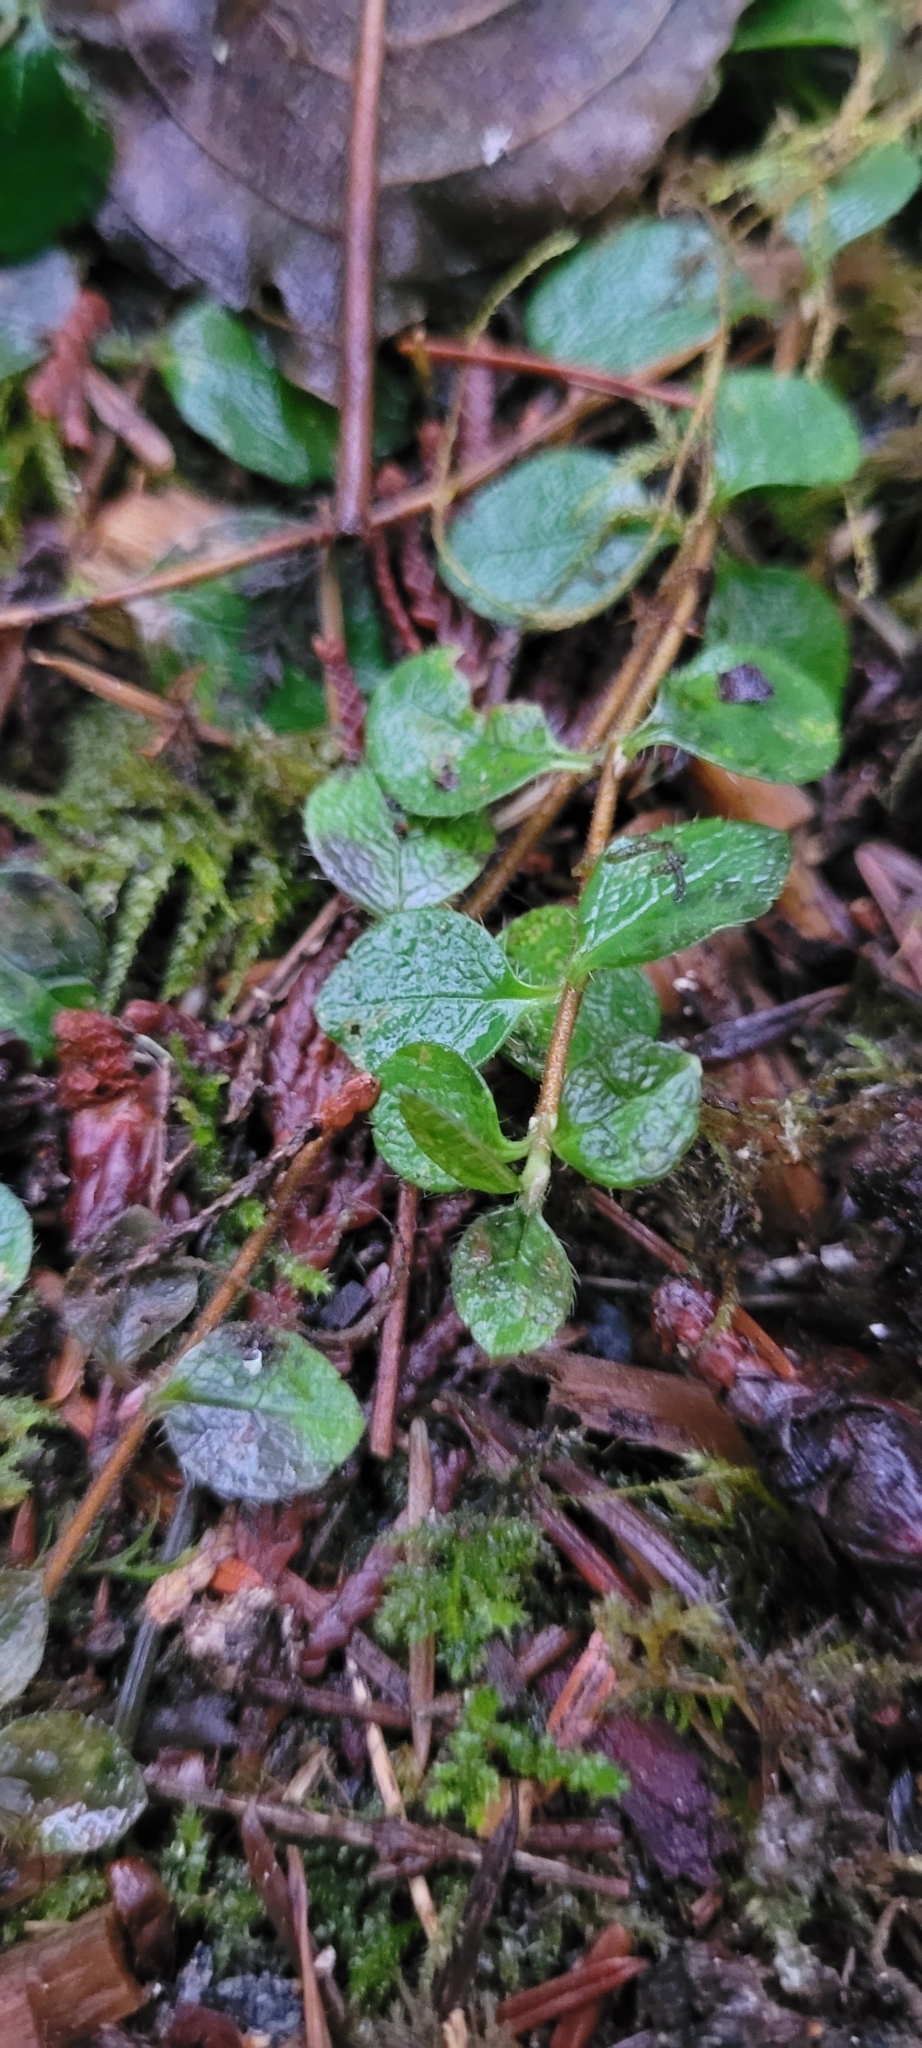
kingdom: Plantae
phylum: Tracheophyta
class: Magnoliopsida
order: Dipsacales
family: Caprifoliaceae
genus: Linnaea
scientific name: Linnaea borealis
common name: Twinflower
